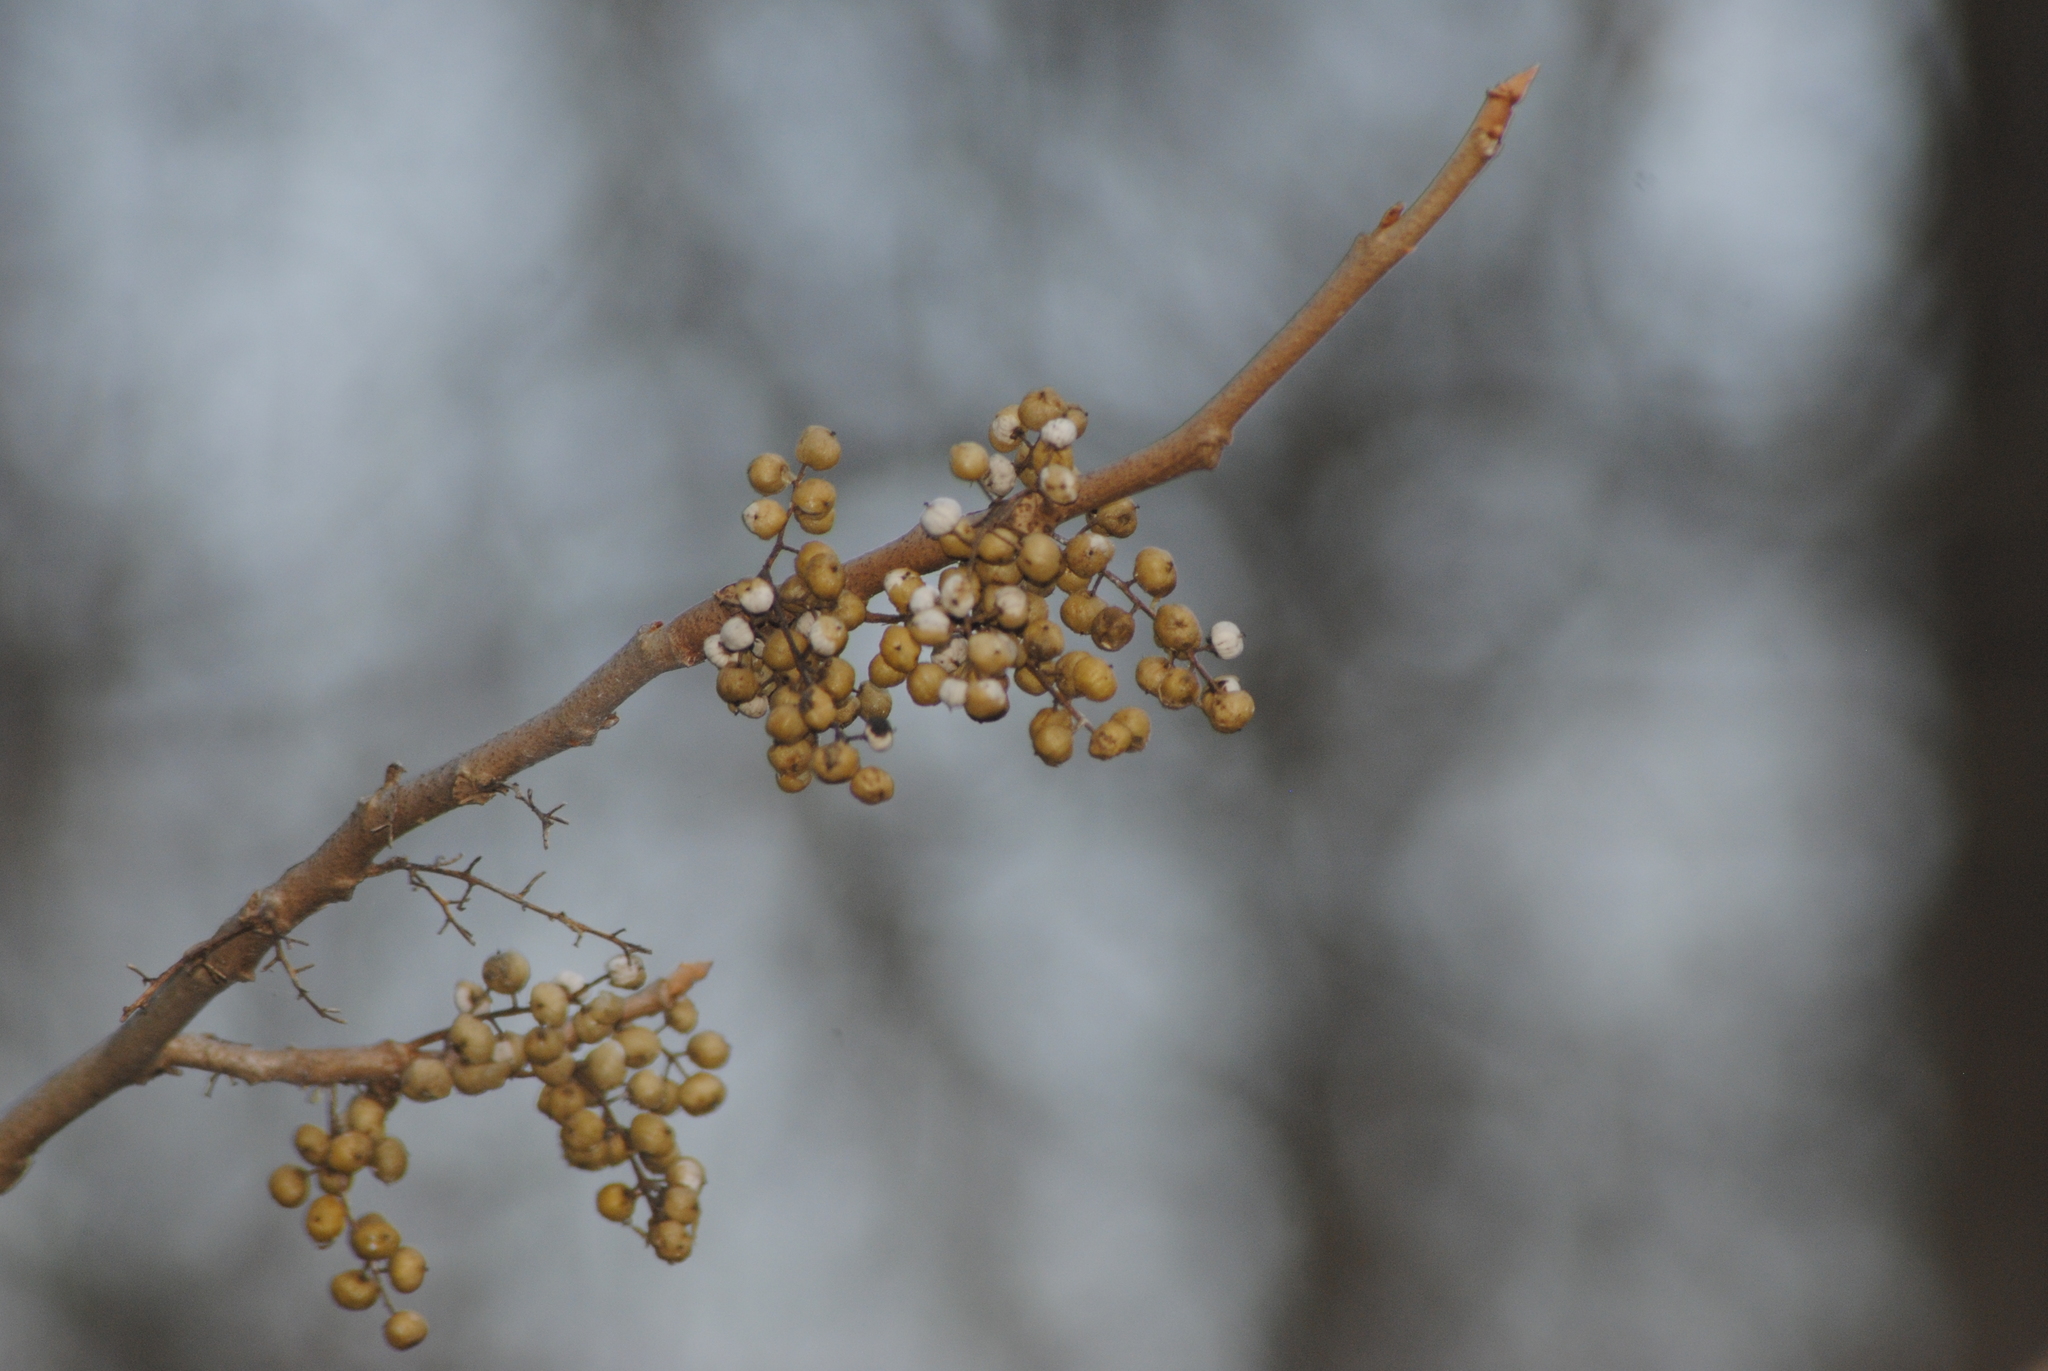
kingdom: Plantae
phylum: Tracheophyta
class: Magnoliopsida
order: Sapindales
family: Anacardiaceae
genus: Toxicodendron
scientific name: Toxicodendron radicans
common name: Poison ivy
